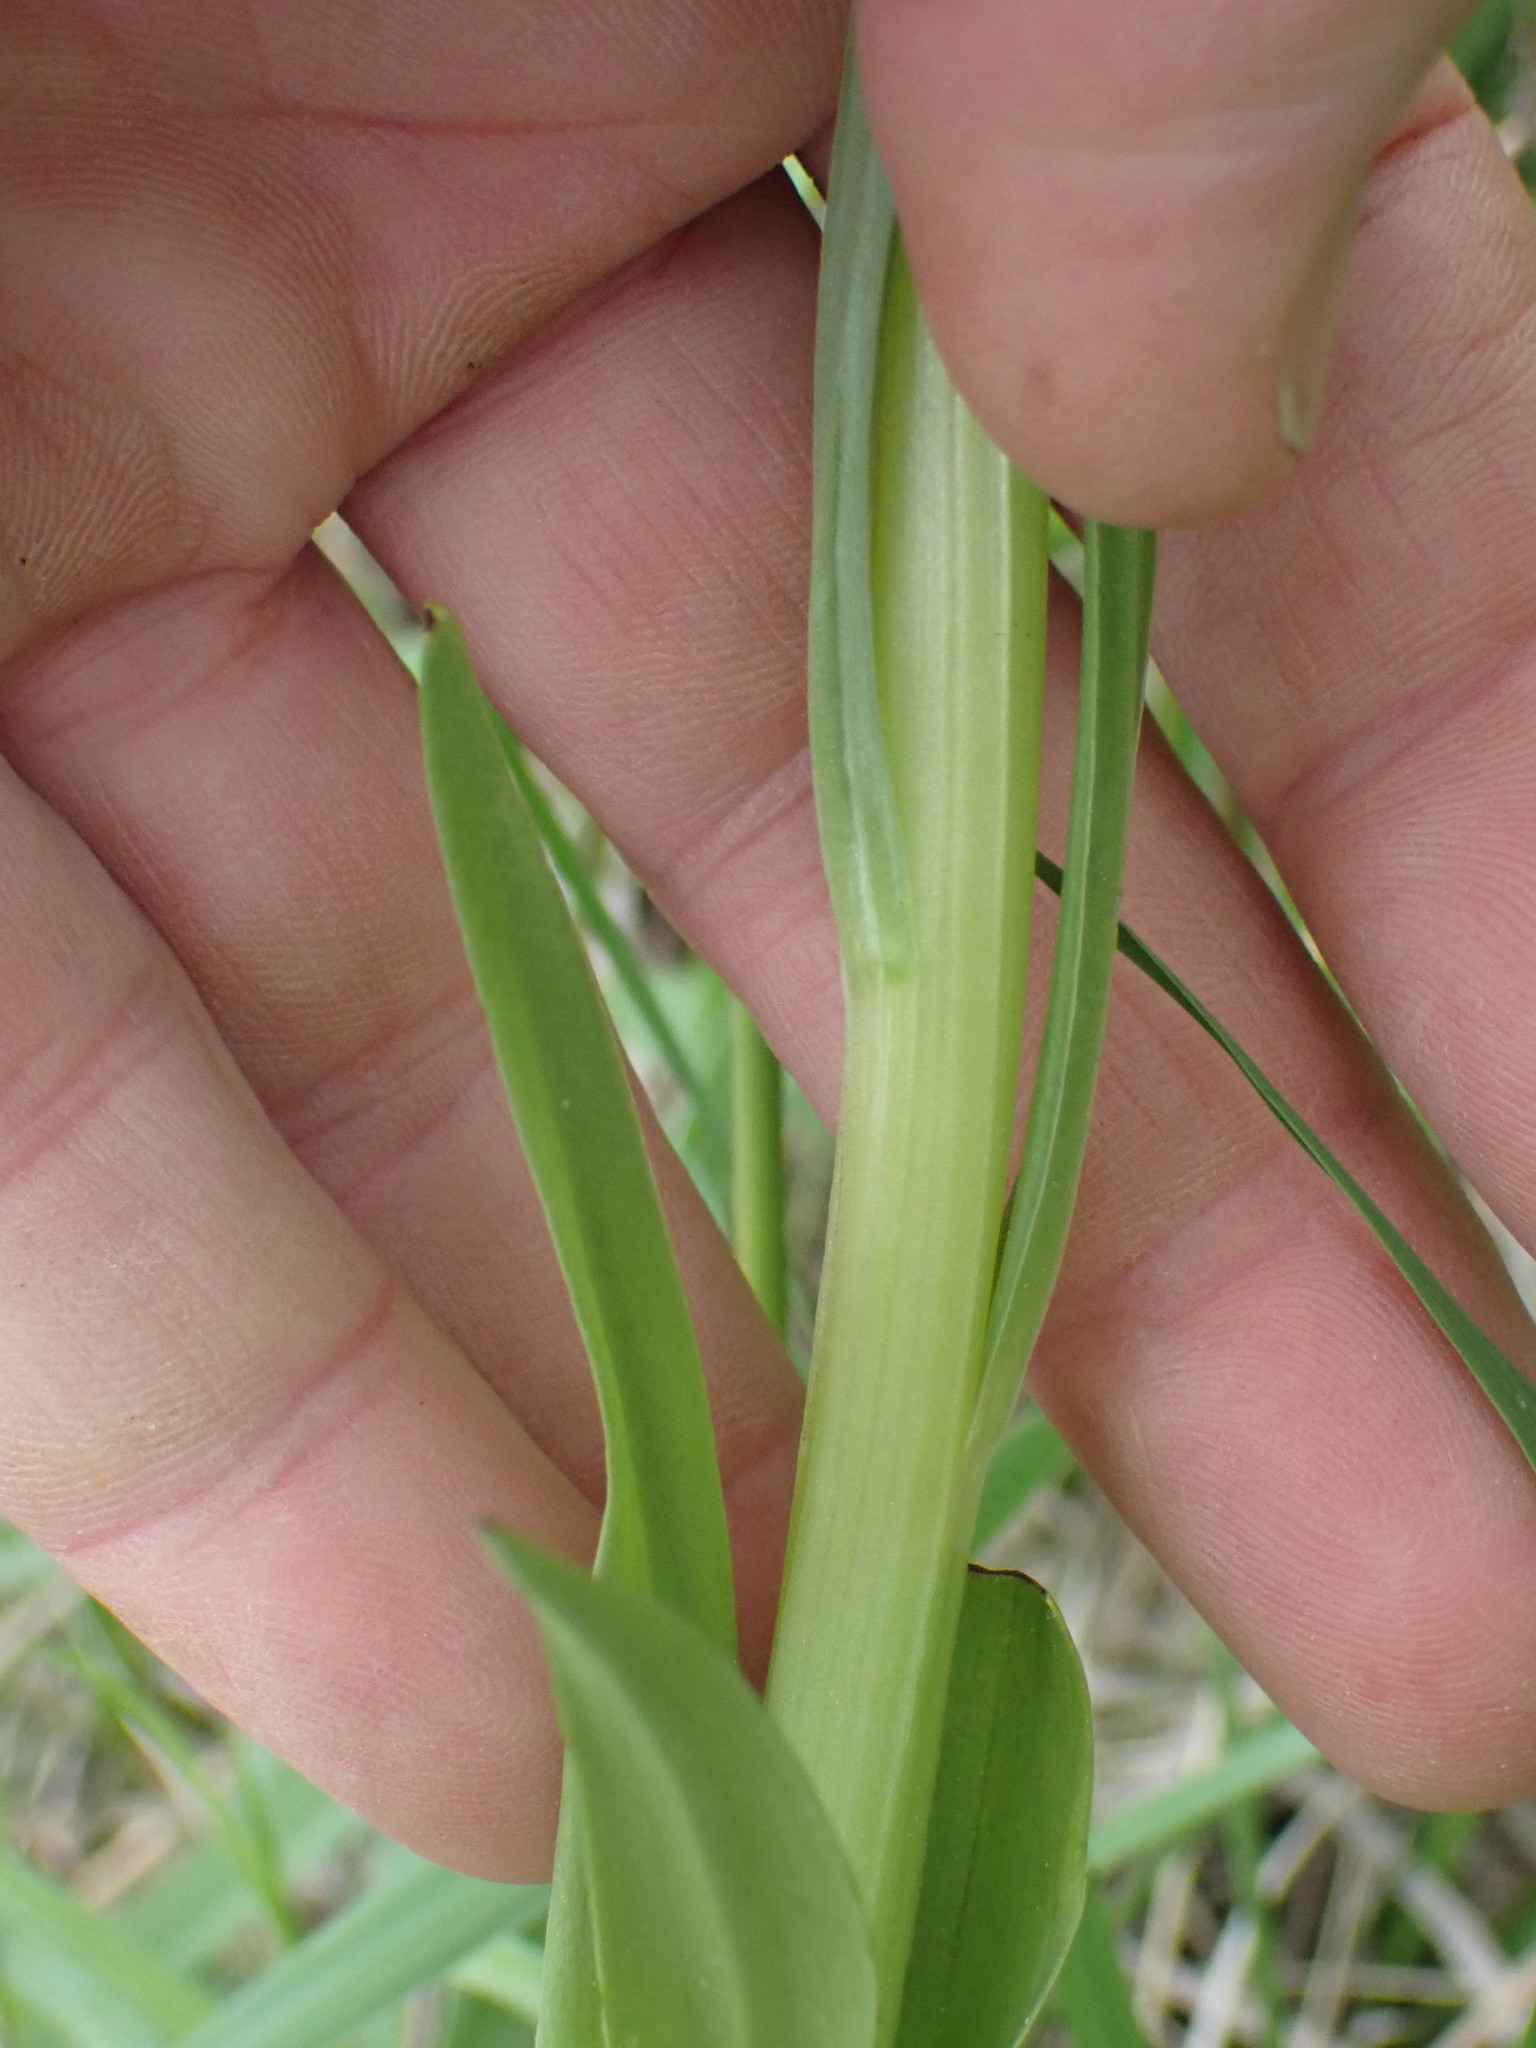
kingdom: Plantae
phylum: Tracheophyta
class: Liliopsida
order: Asparagales
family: Orchidaceae
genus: Platanthera
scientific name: Platanthera huronensis
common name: Fragrant green orchid
